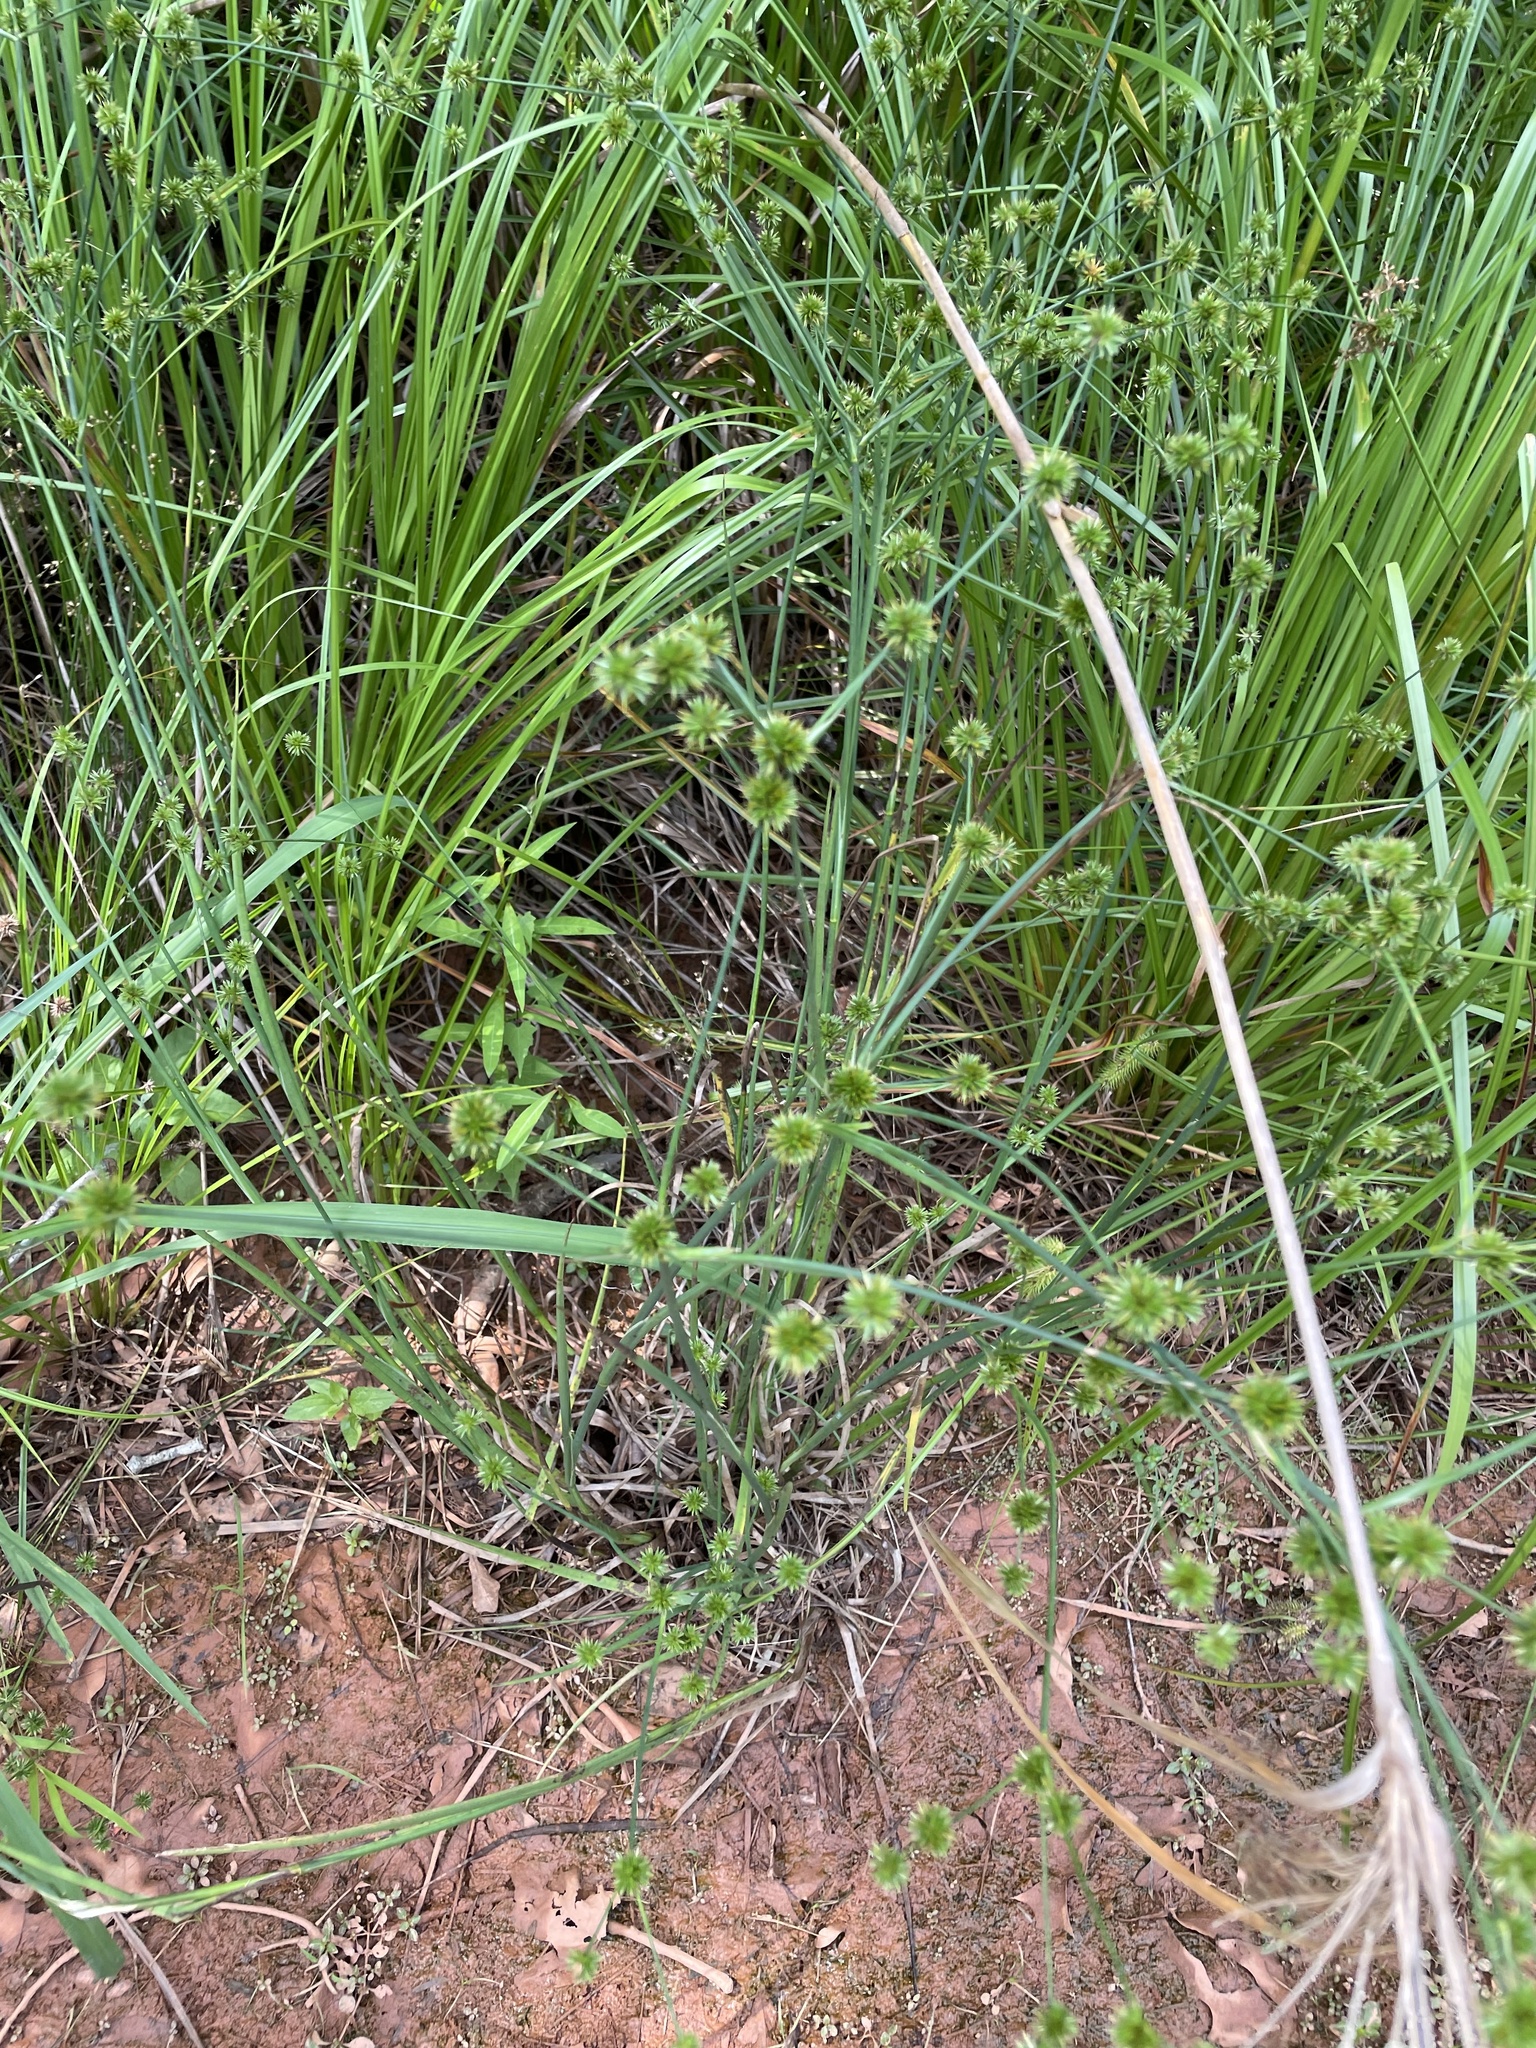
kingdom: Plantae
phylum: Tracheophyta
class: Liliopsida
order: Poales
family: Juncaceae
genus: Juncus
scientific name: Juncus validus
